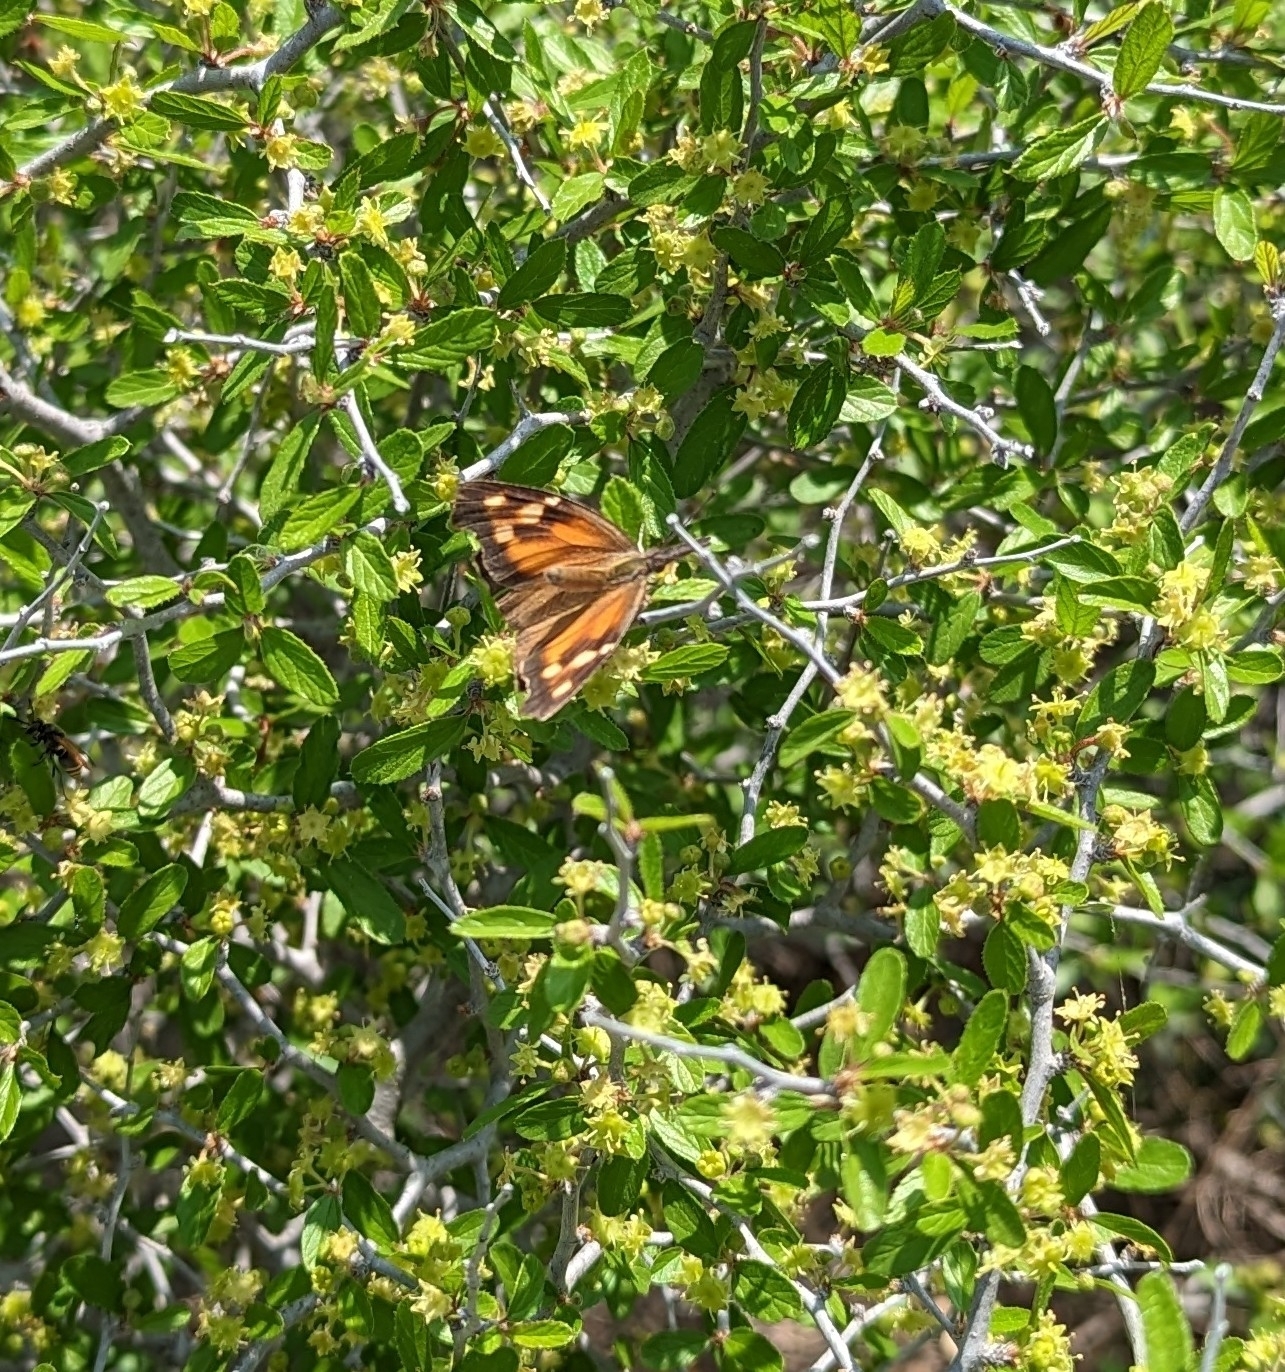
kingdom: Animalia
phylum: Arthropoda
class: Insecta
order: Lepidoptera
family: Nymphalidae
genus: Libytheana
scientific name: Libytheana carinenta
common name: American snout
